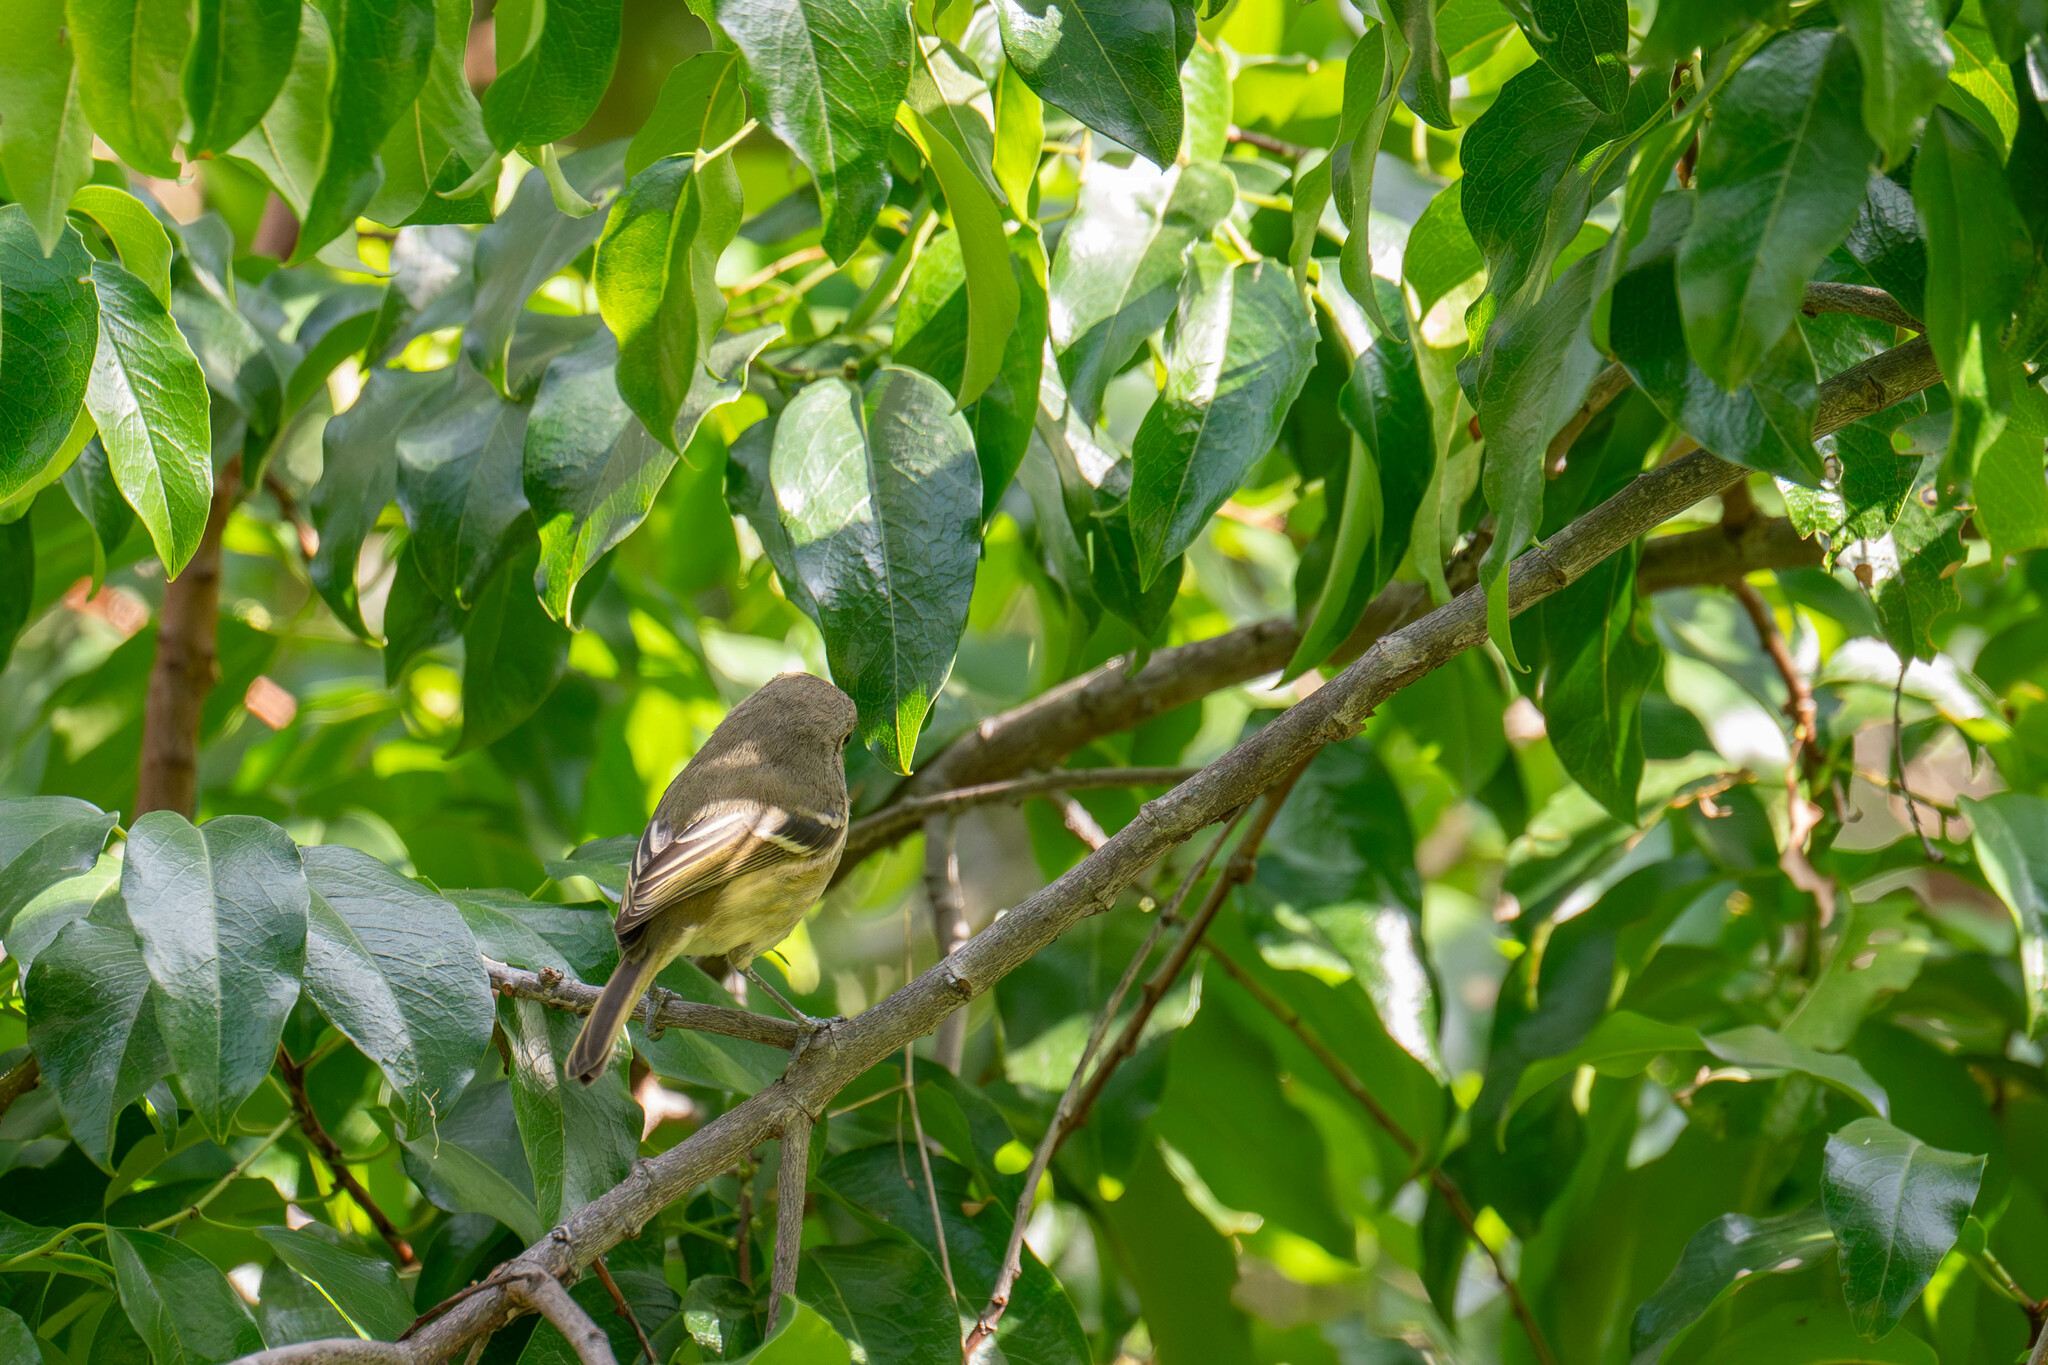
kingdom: Animalia
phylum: Chordata
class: Aves
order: Passeriformes
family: Vireonidae
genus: Vireo
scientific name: Vireo huttoni
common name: Hutton's vireo
